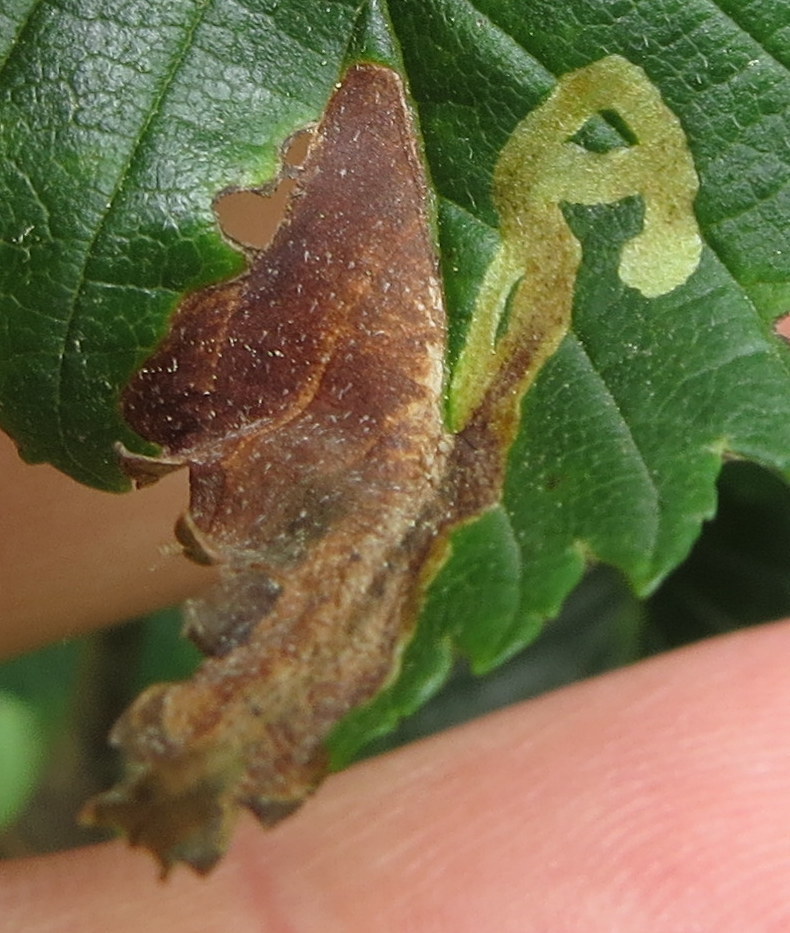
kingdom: Animalia
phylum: Arthropoda
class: Insecta
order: Diptera
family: Agromyzidae
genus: Agromyza
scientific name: Agromyza aristata
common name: Elm agromyzid leafminer
